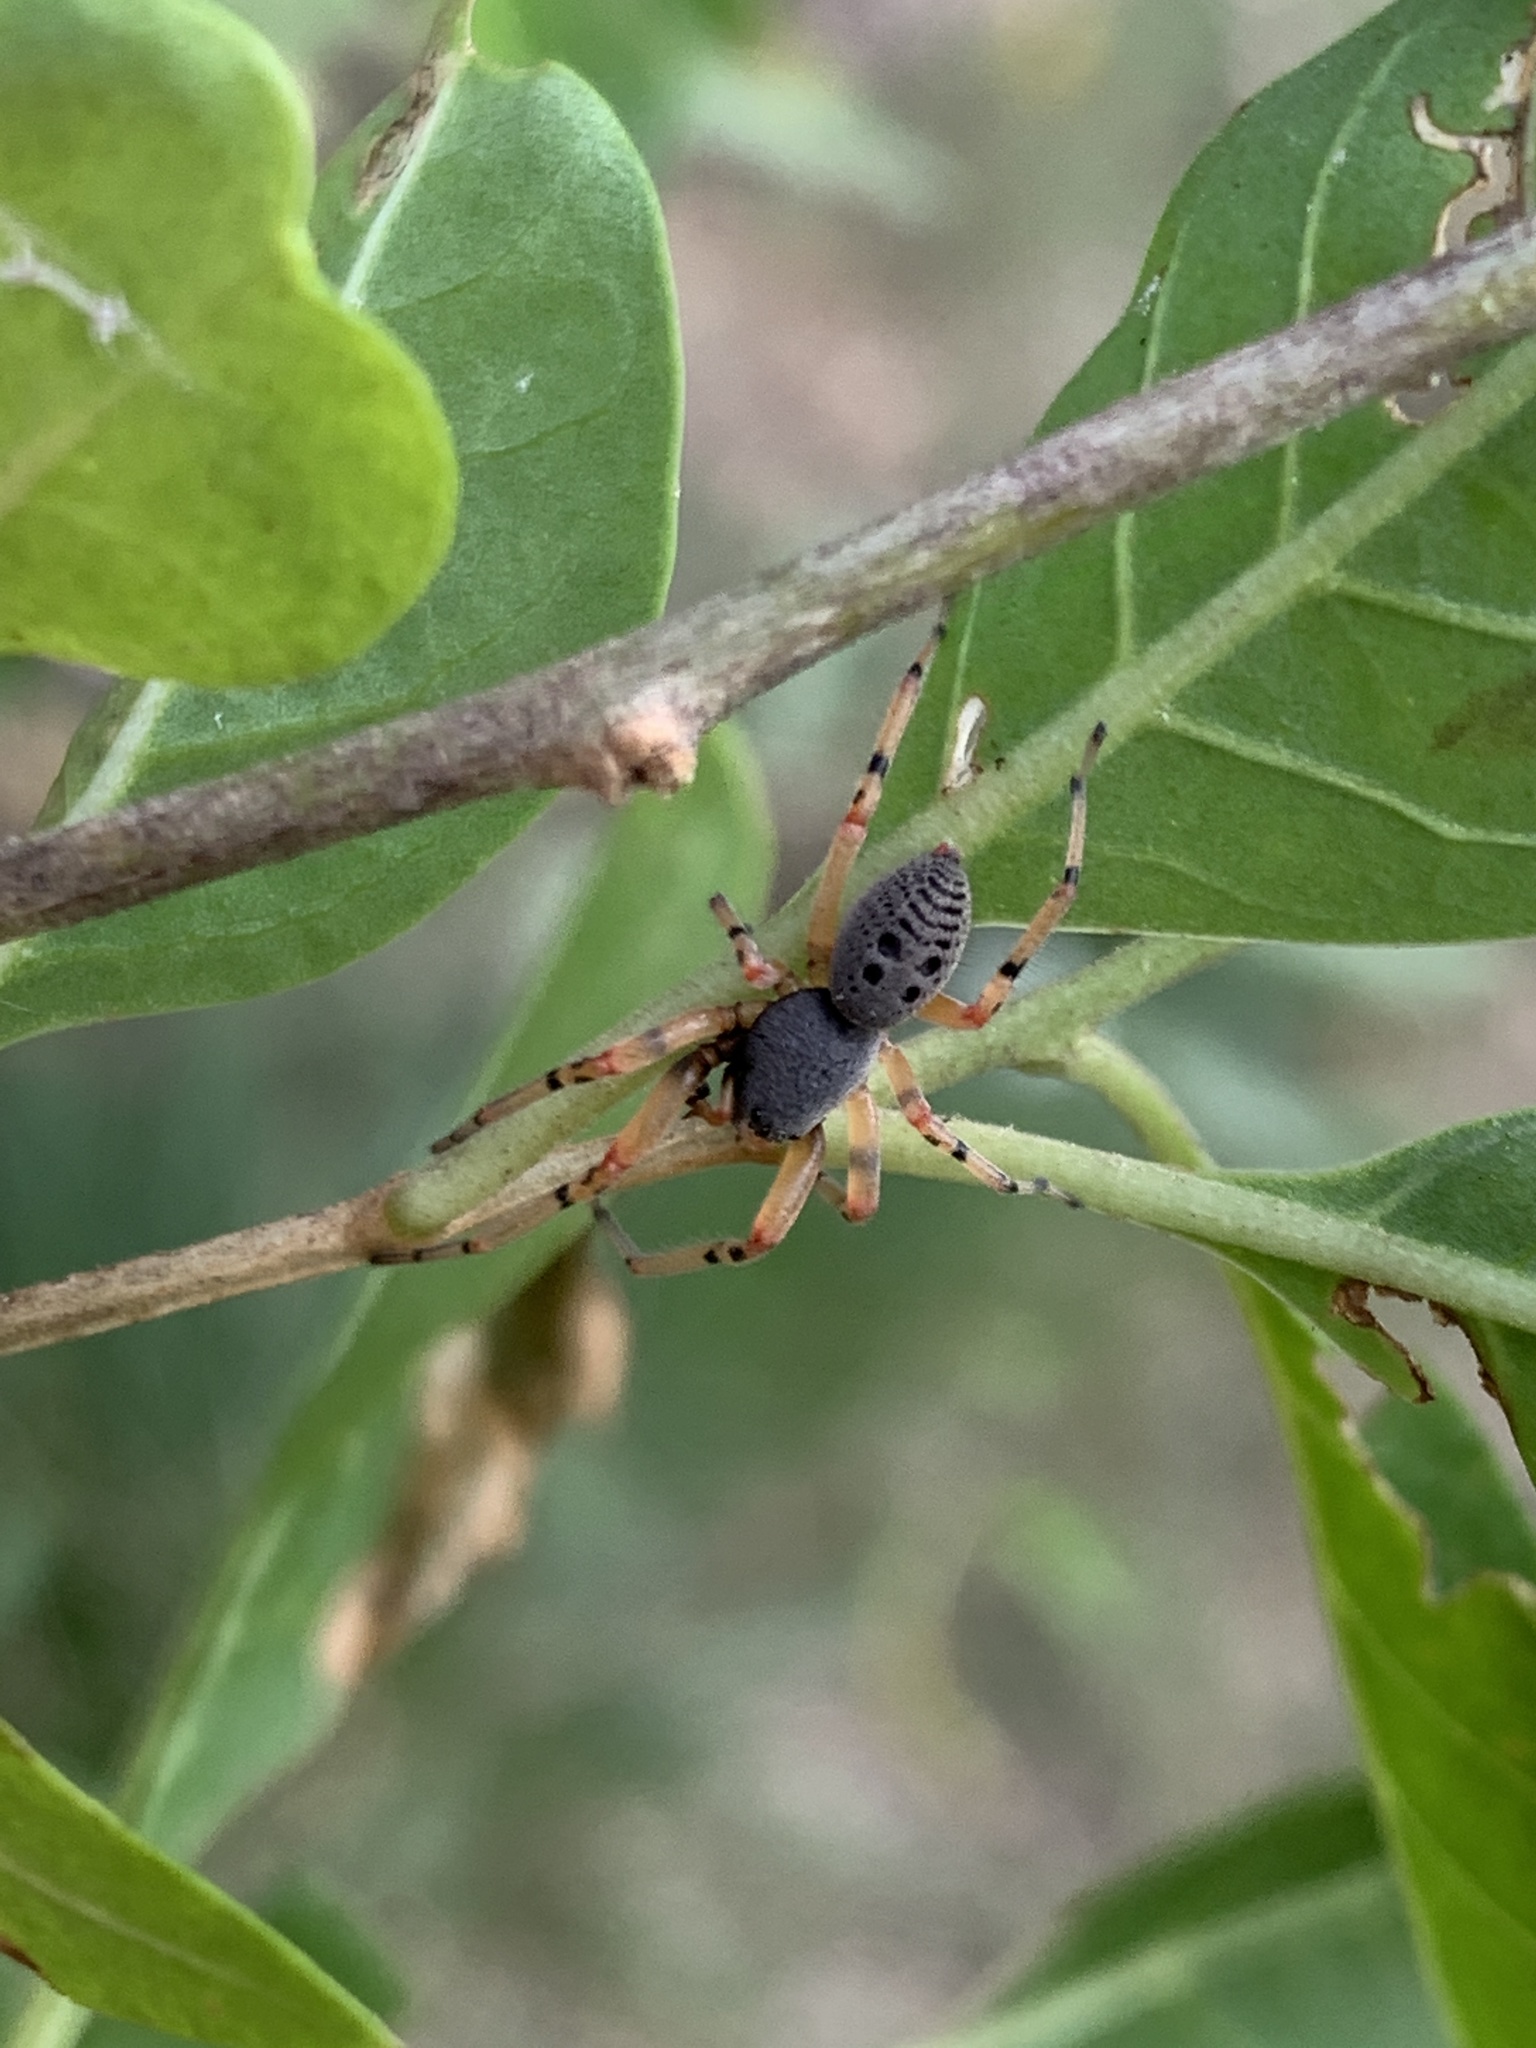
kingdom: Animalia
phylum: Arthropoda
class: Arachnida
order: Araneae
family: Trachelidae
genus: Trachelopachys
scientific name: Trachelopachys
